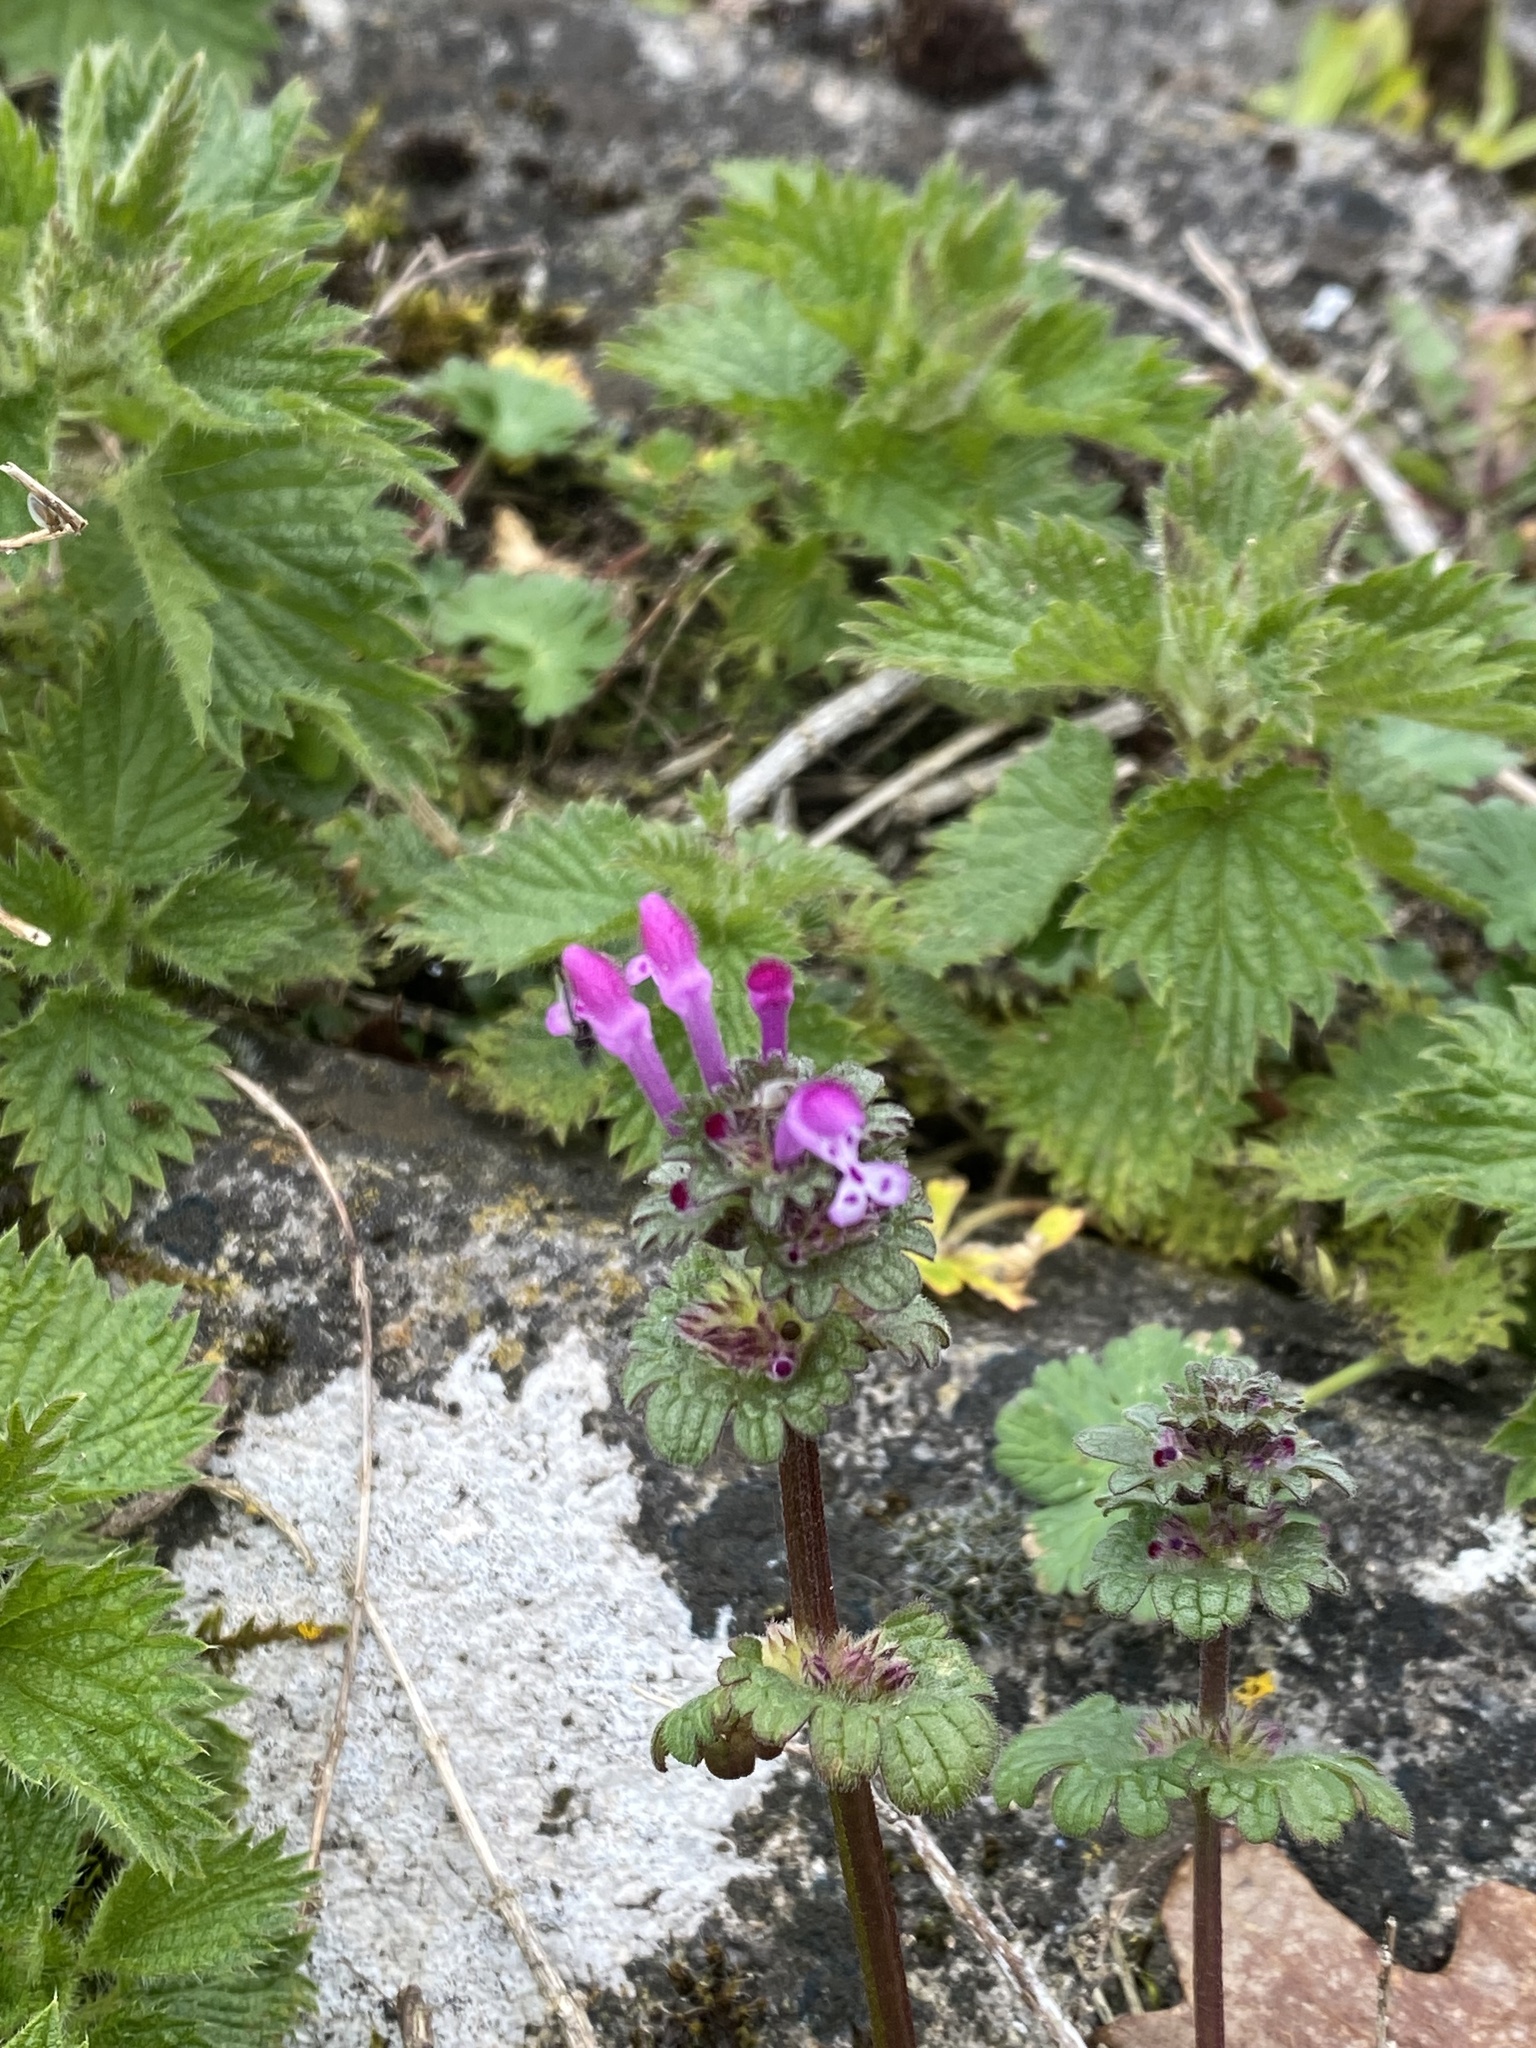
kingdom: Plantae
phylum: Tracheophyta
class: Magnoliopsida
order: Lamiales
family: Lamiaceae
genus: Lamium
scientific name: Lamium amplexicaule
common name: Henbit dead-nettle
